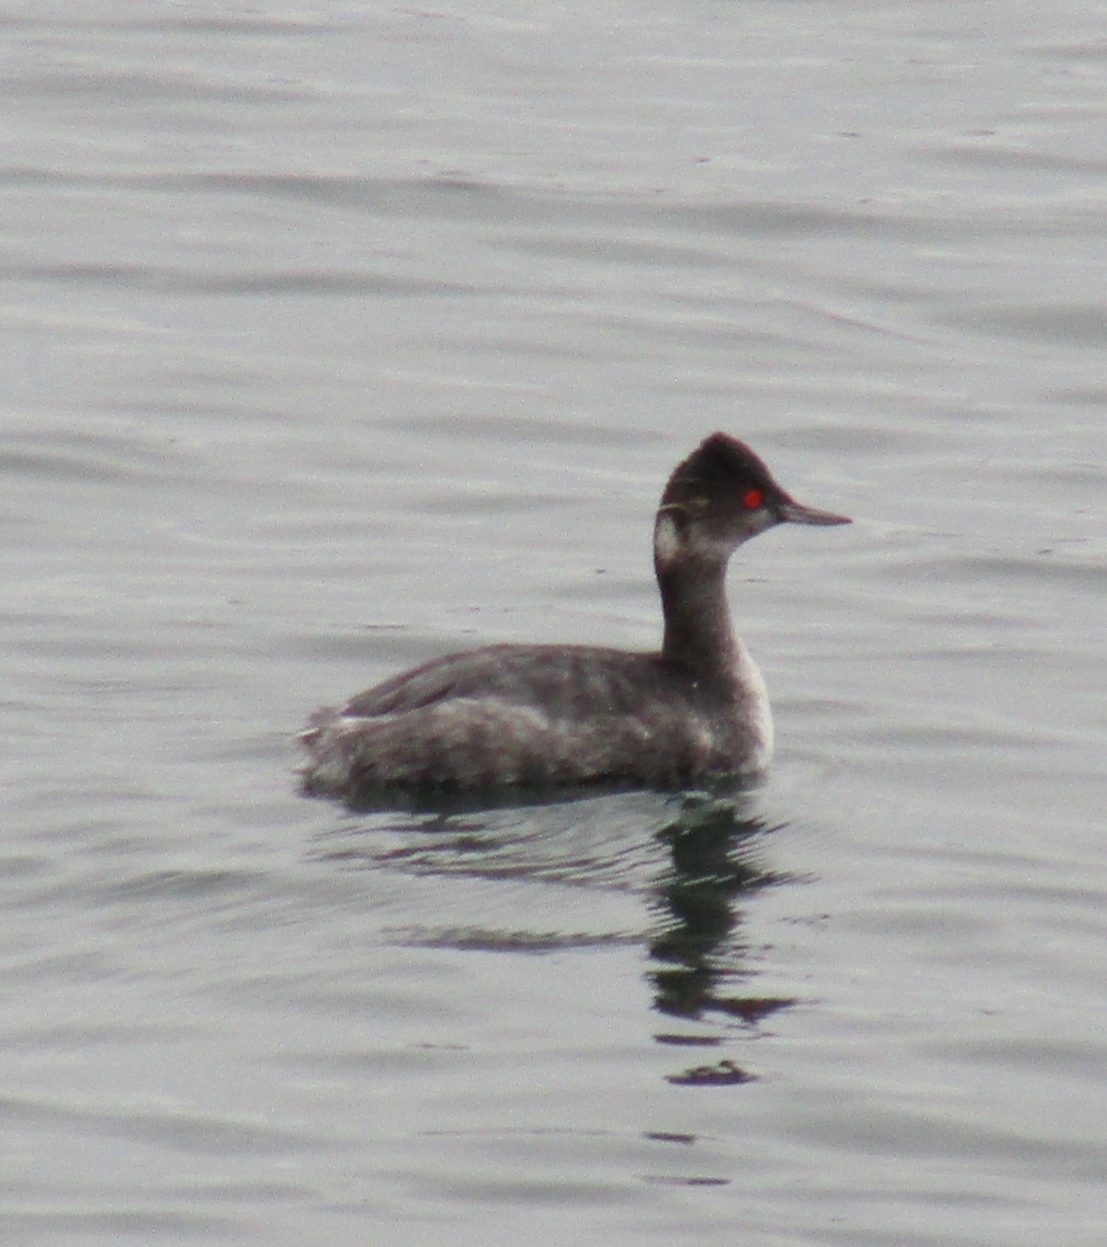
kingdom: Animalia
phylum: Chordata
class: Aves
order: Podicipediformes
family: Podicipedidae
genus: Podiceps
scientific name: Podiceps nigricollis
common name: Black-necked grebe
